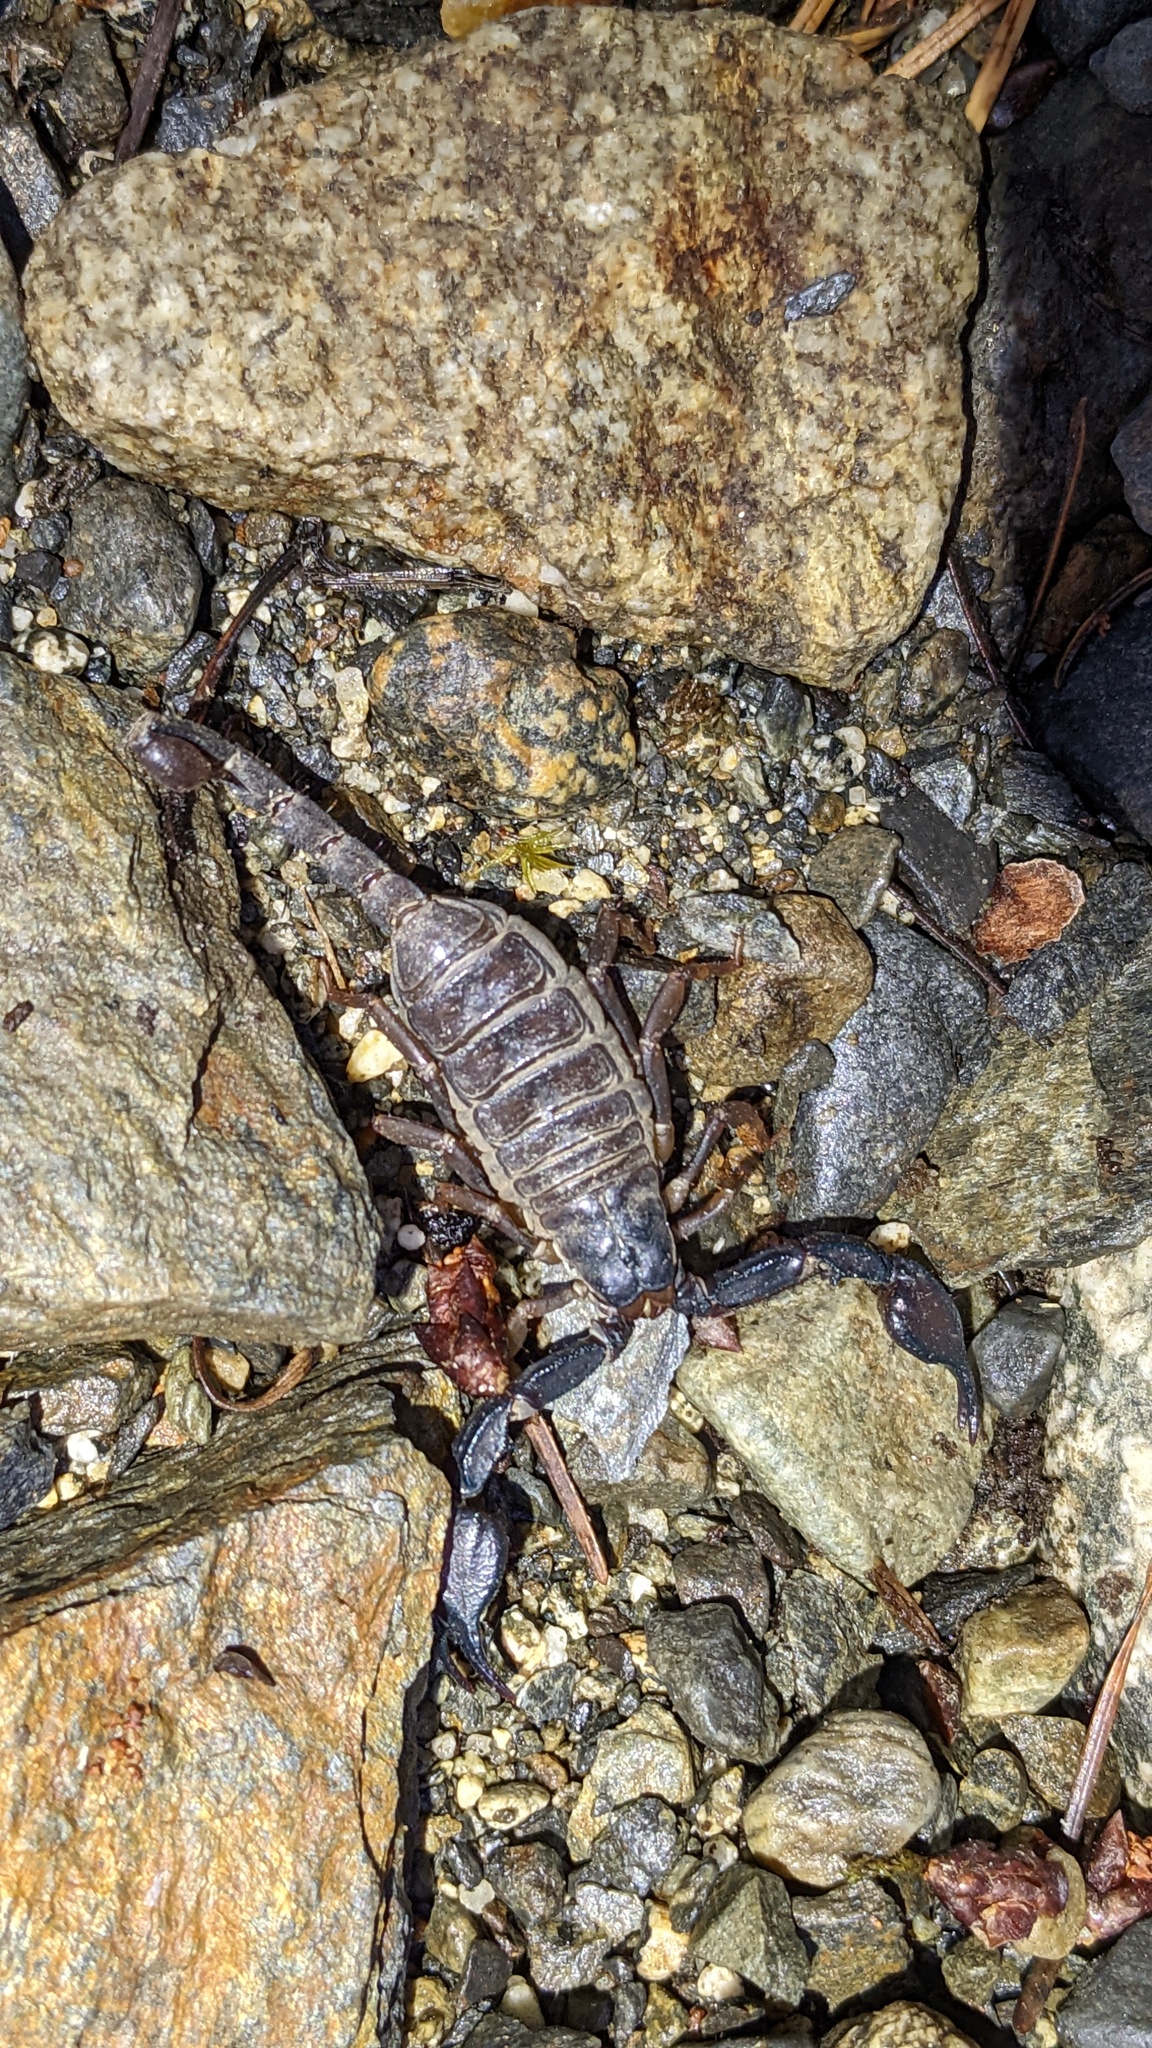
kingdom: Animalia
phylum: Arthropoda
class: Arachnida
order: Scorpiones
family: Chactidae
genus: Uroctonus
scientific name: Uroctonus mordax
